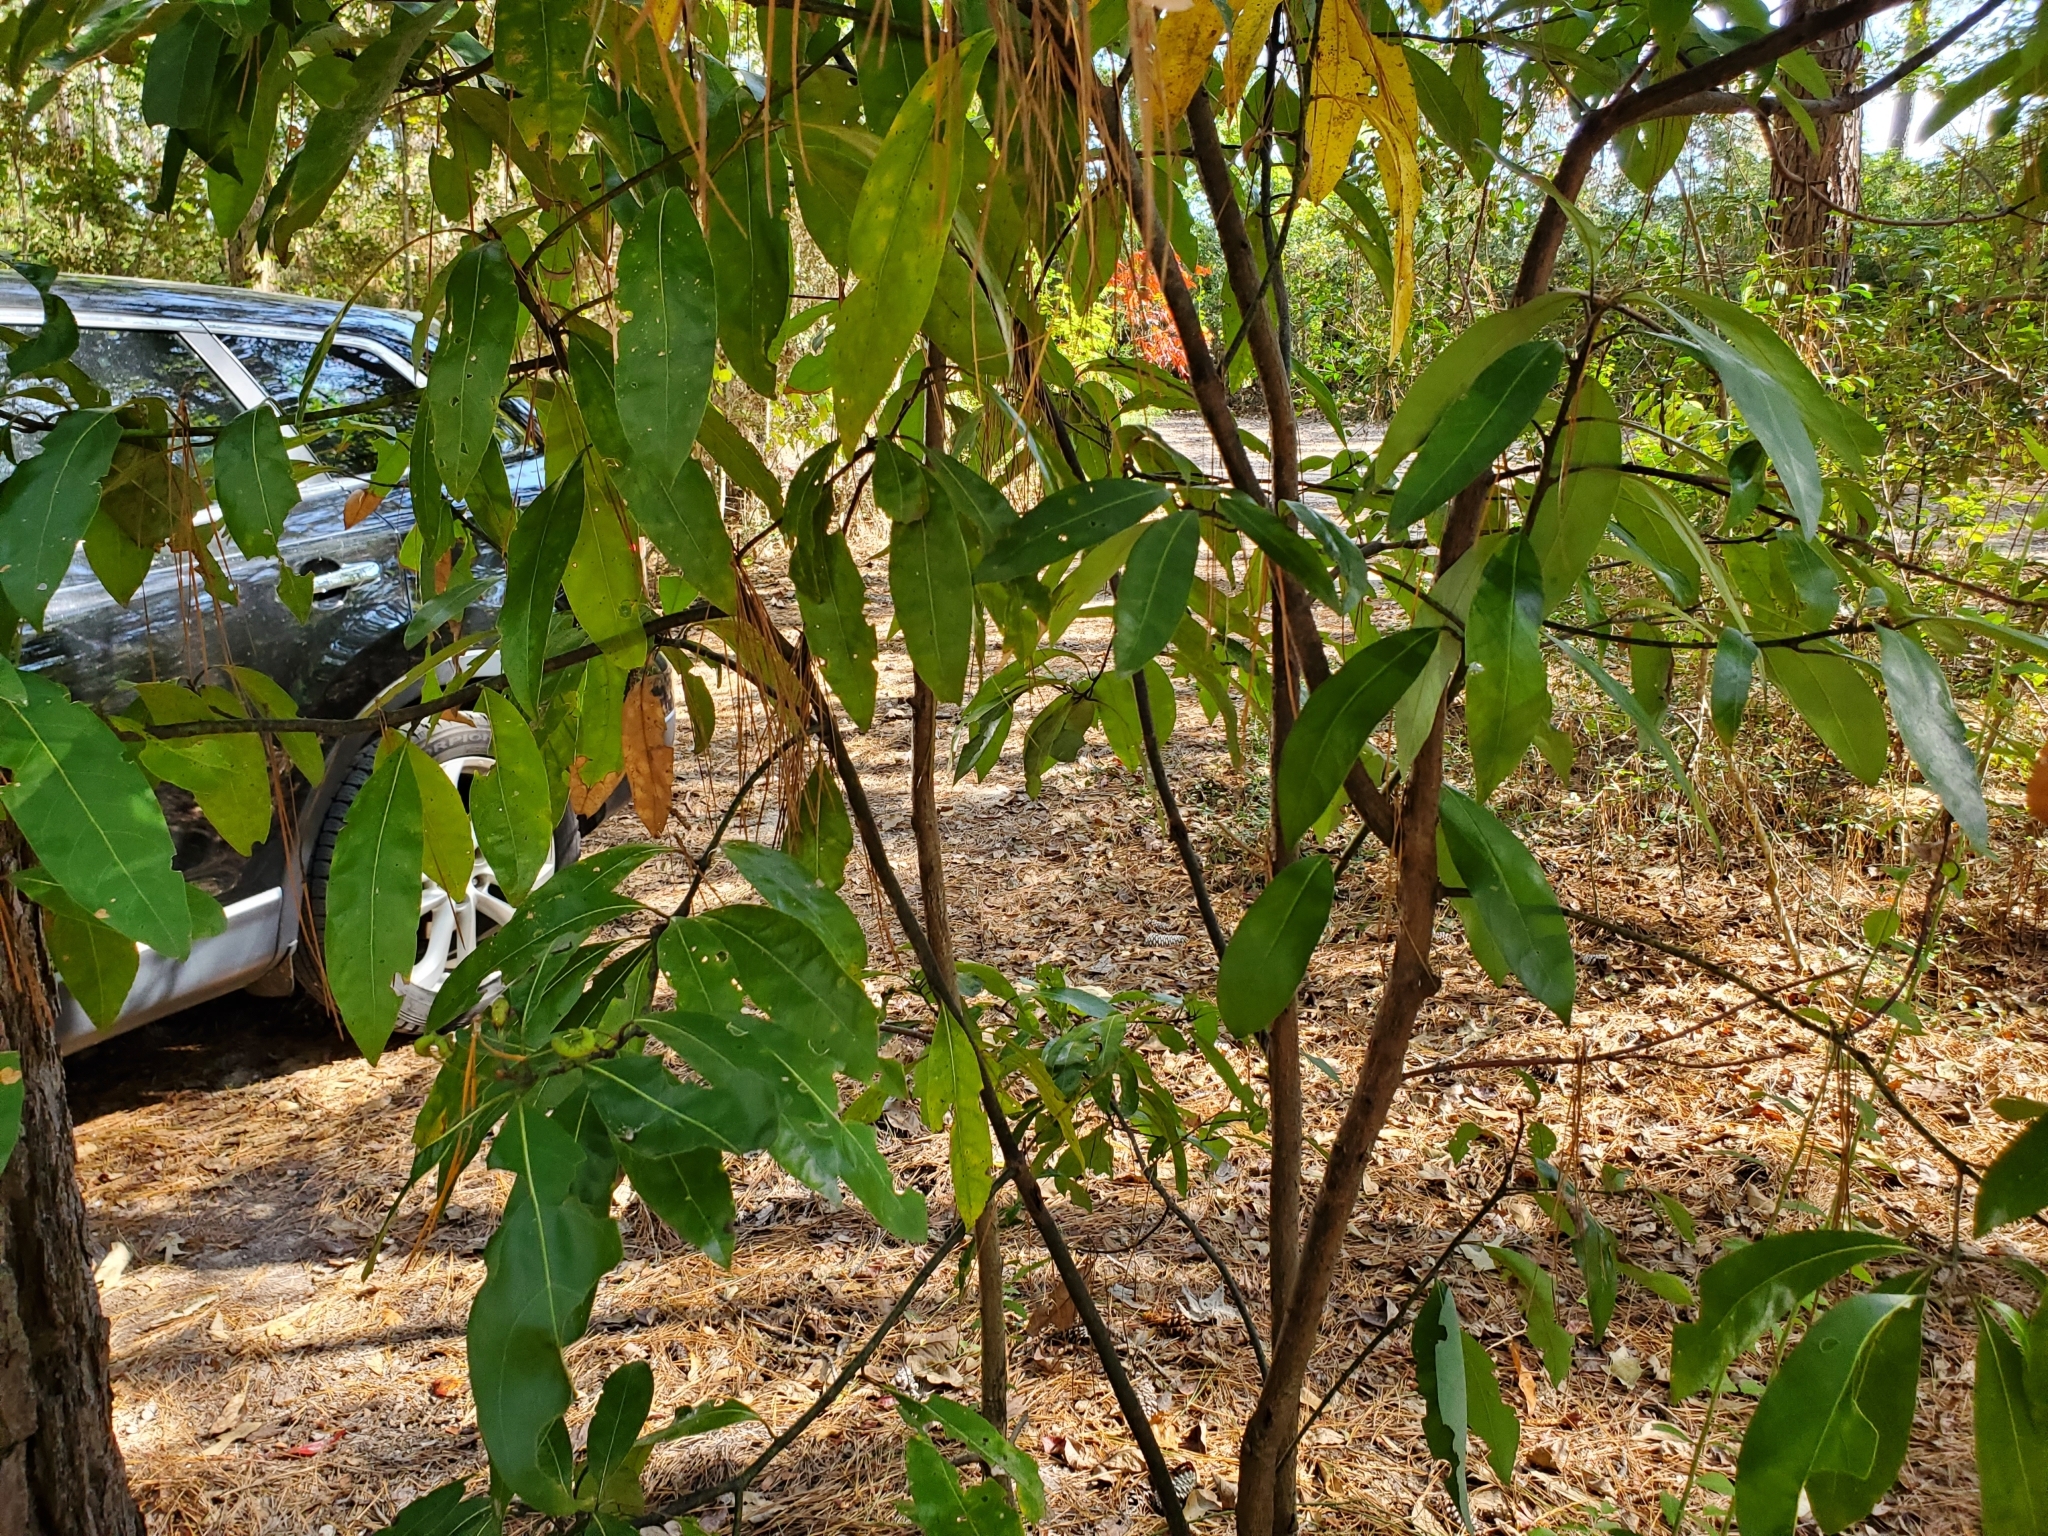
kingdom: Plantae
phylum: Tracheophyta
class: Magnoliopsida
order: Laurales
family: Lauraceae
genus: Persea
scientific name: Persea borbonia
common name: Redbay
